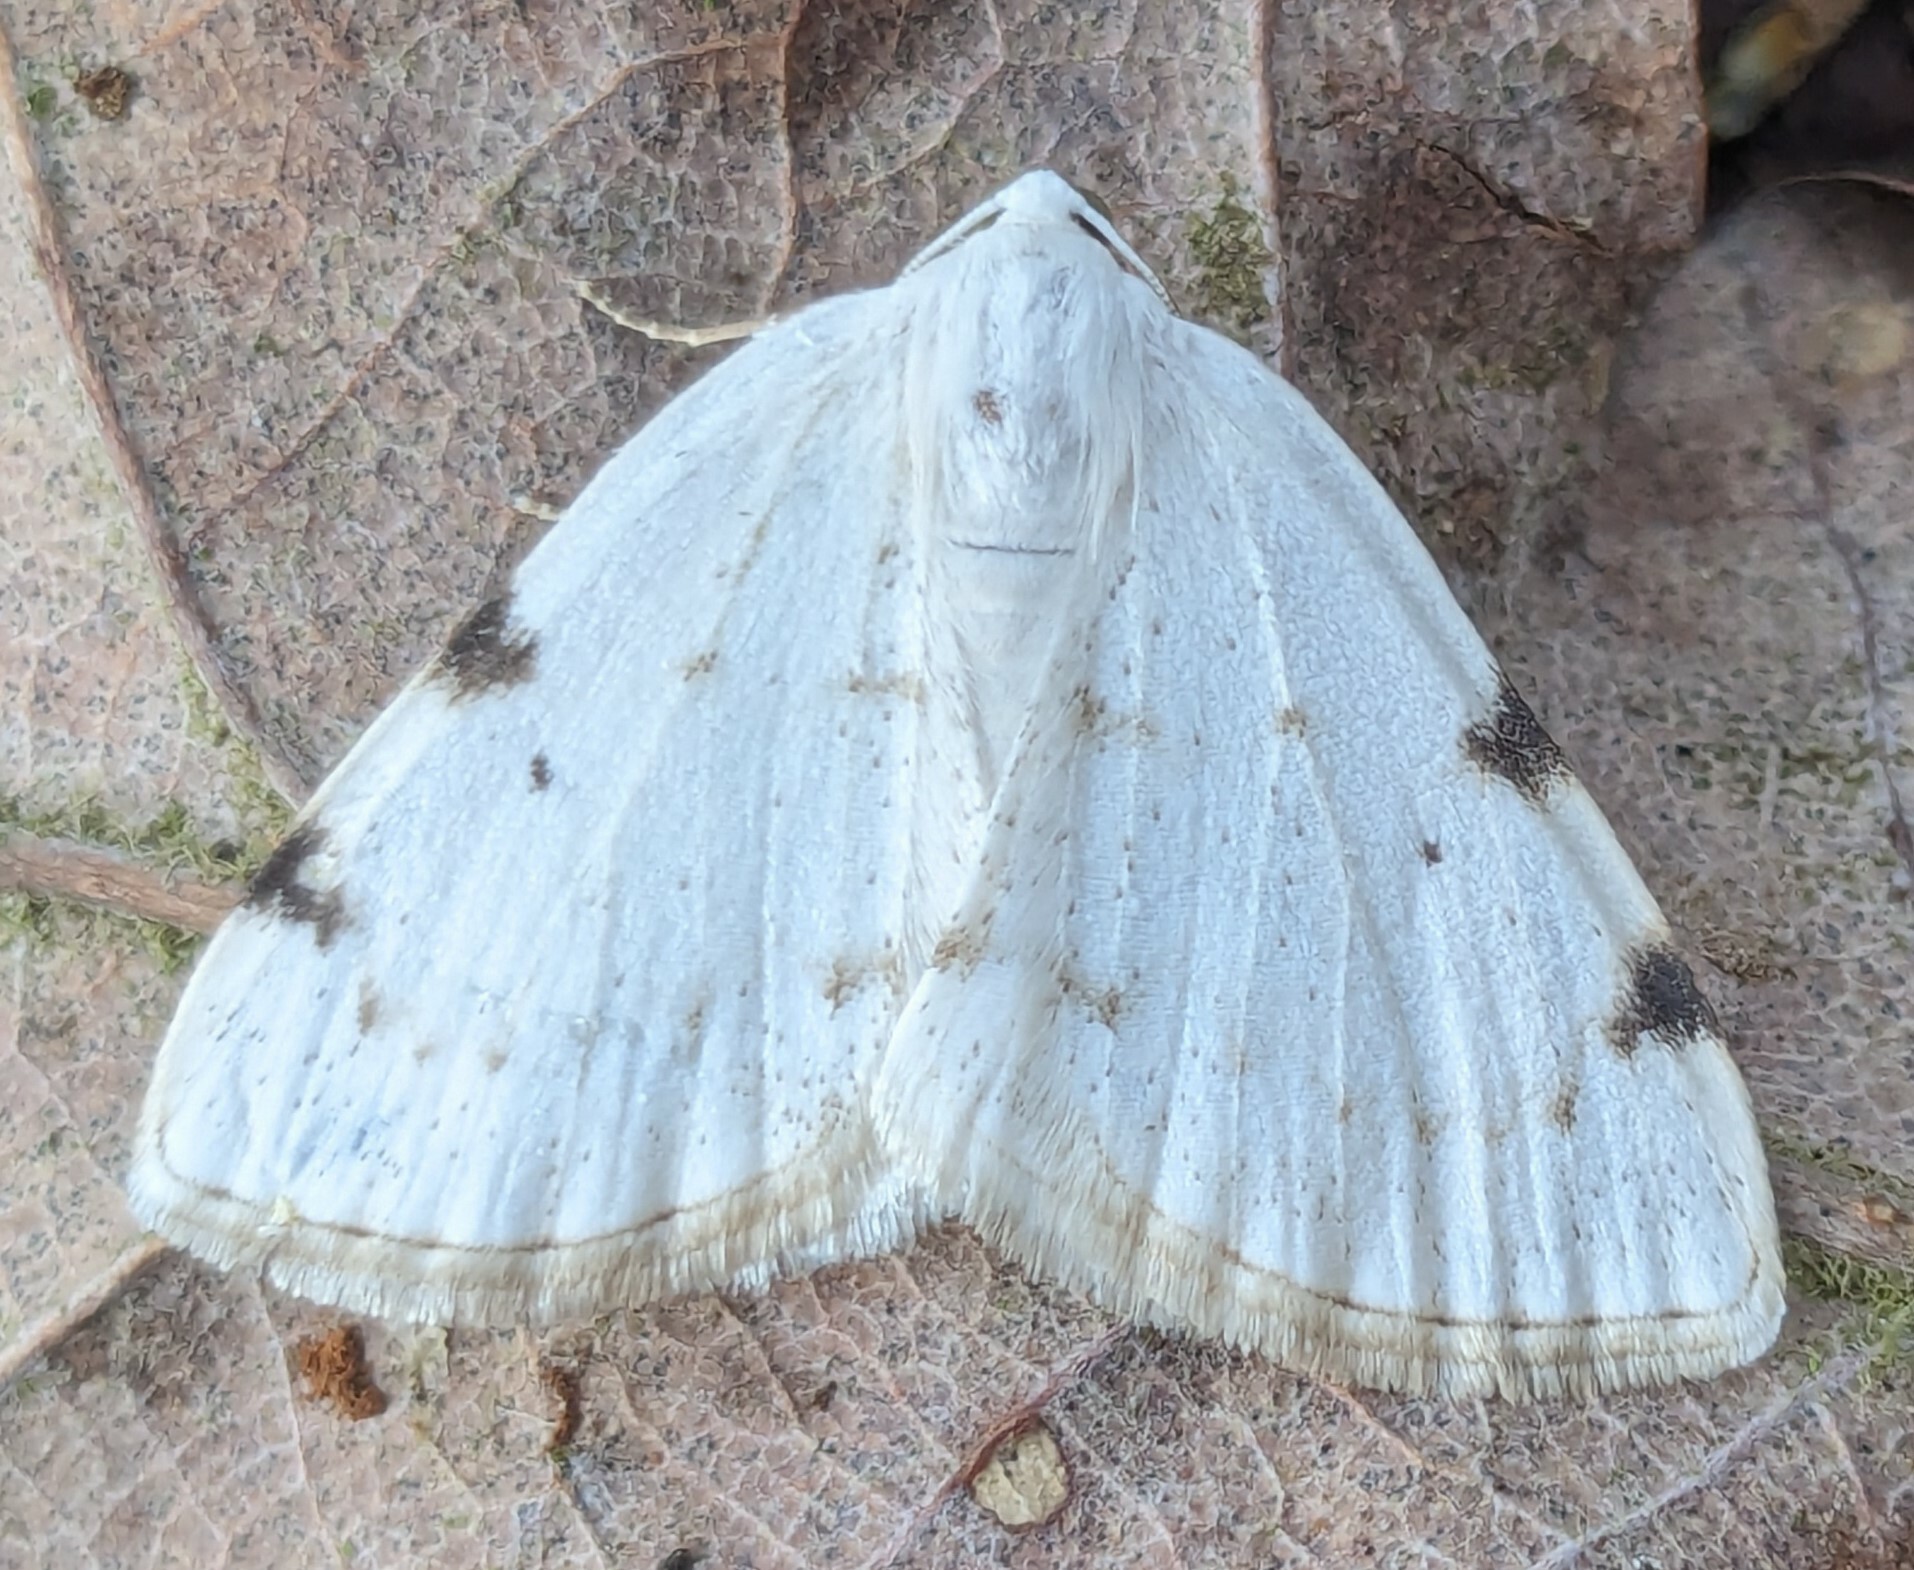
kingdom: Animalia
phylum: Arthropoda
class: Insecta
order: Lepidoptera
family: Geometridae
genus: Lomographa
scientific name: Lomographa bimaculata
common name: White-pinion spotted
